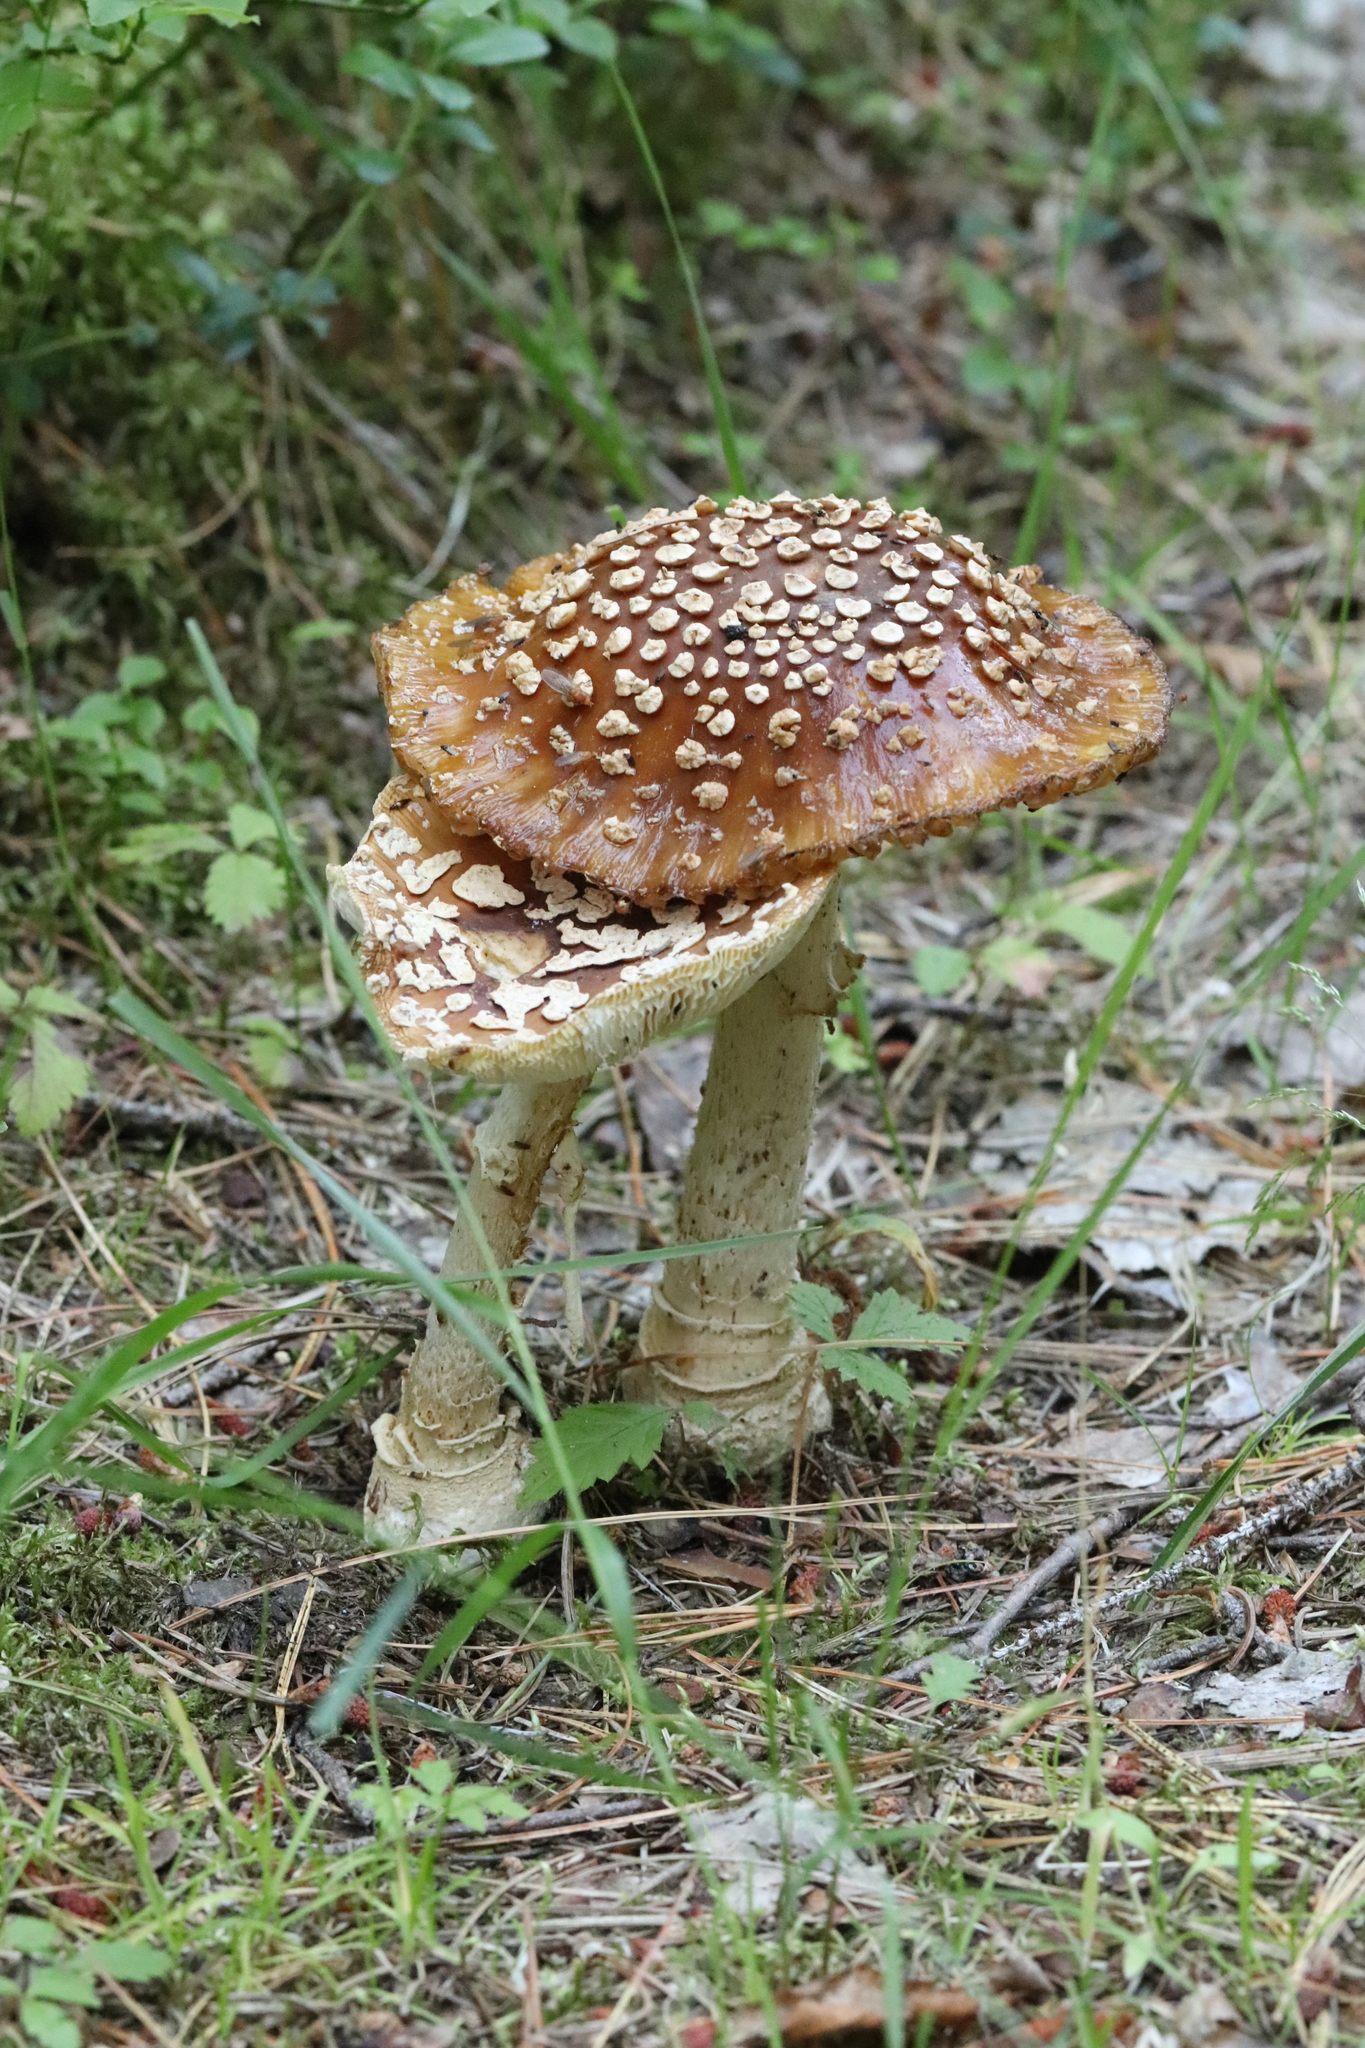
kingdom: Fungi
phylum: Basidiomycota
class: Agaricomycetes
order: Agaricales
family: Amanitaceae
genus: Amanita
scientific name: Amanita regalis
